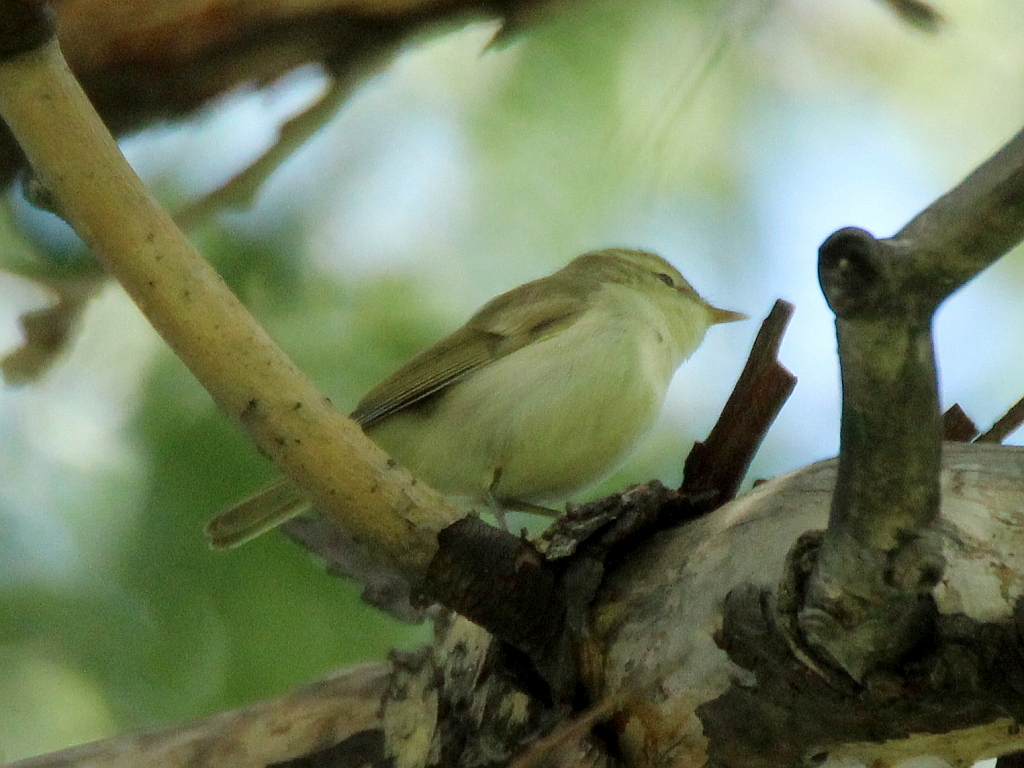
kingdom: Animalia
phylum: Chordata
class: Aves
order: Passeriformes
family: Phylloscopidae
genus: Phylloscopus
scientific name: Phylloscopus trochiloides
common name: Greenish warbler
